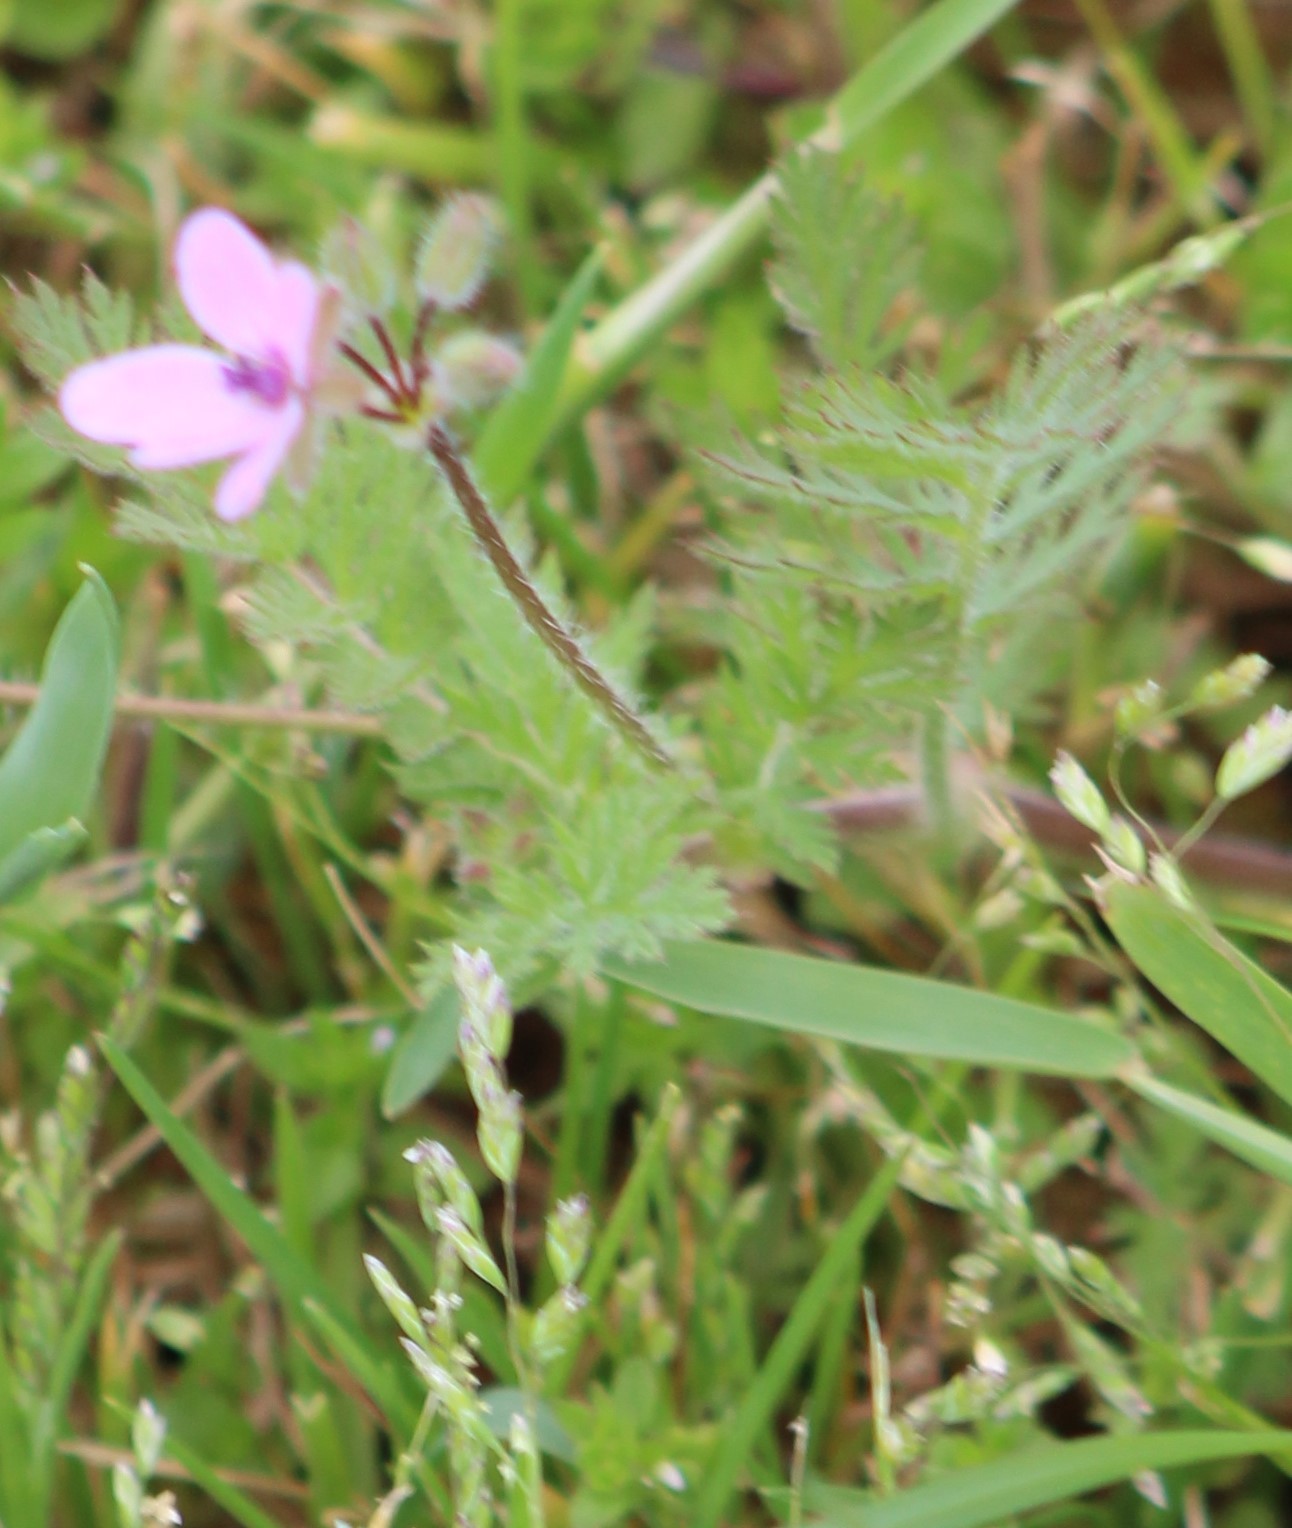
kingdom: Plantae
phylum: Tracheophyta
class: Magnoliopsida
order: Geraniales
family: Geraniaceae
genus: Erodium
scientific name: Erodium cicutarium
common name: Common stork's-bill
